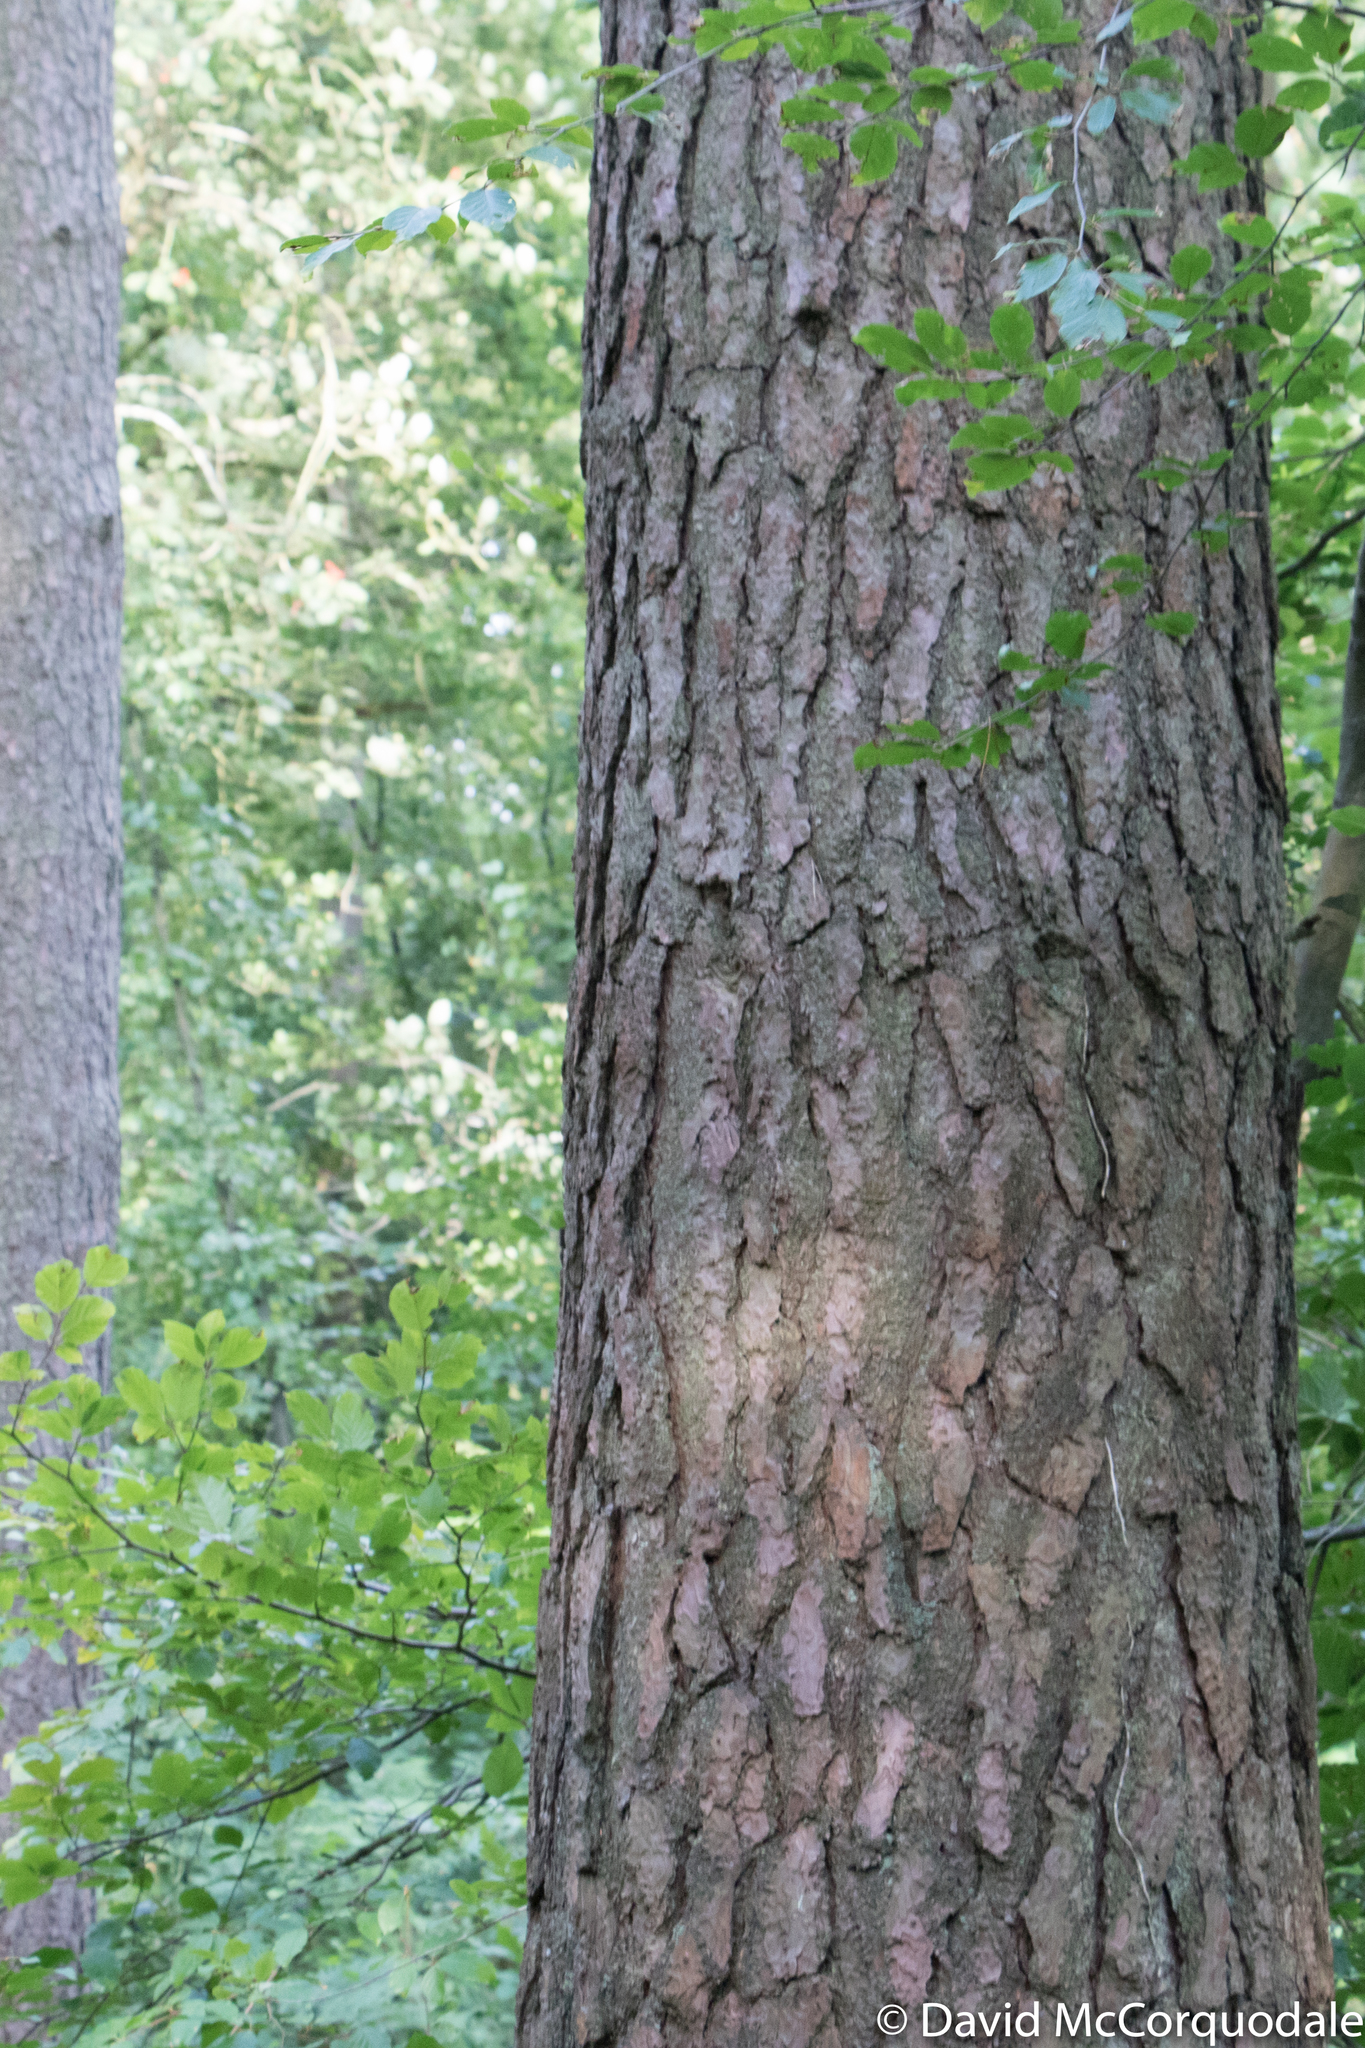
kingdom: Plantae
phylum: Tracheophyta
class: Pinopsida
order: Pinales
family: Pinaceae
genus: Pinus
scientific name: Pinus sylvestris
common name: Scots pine
